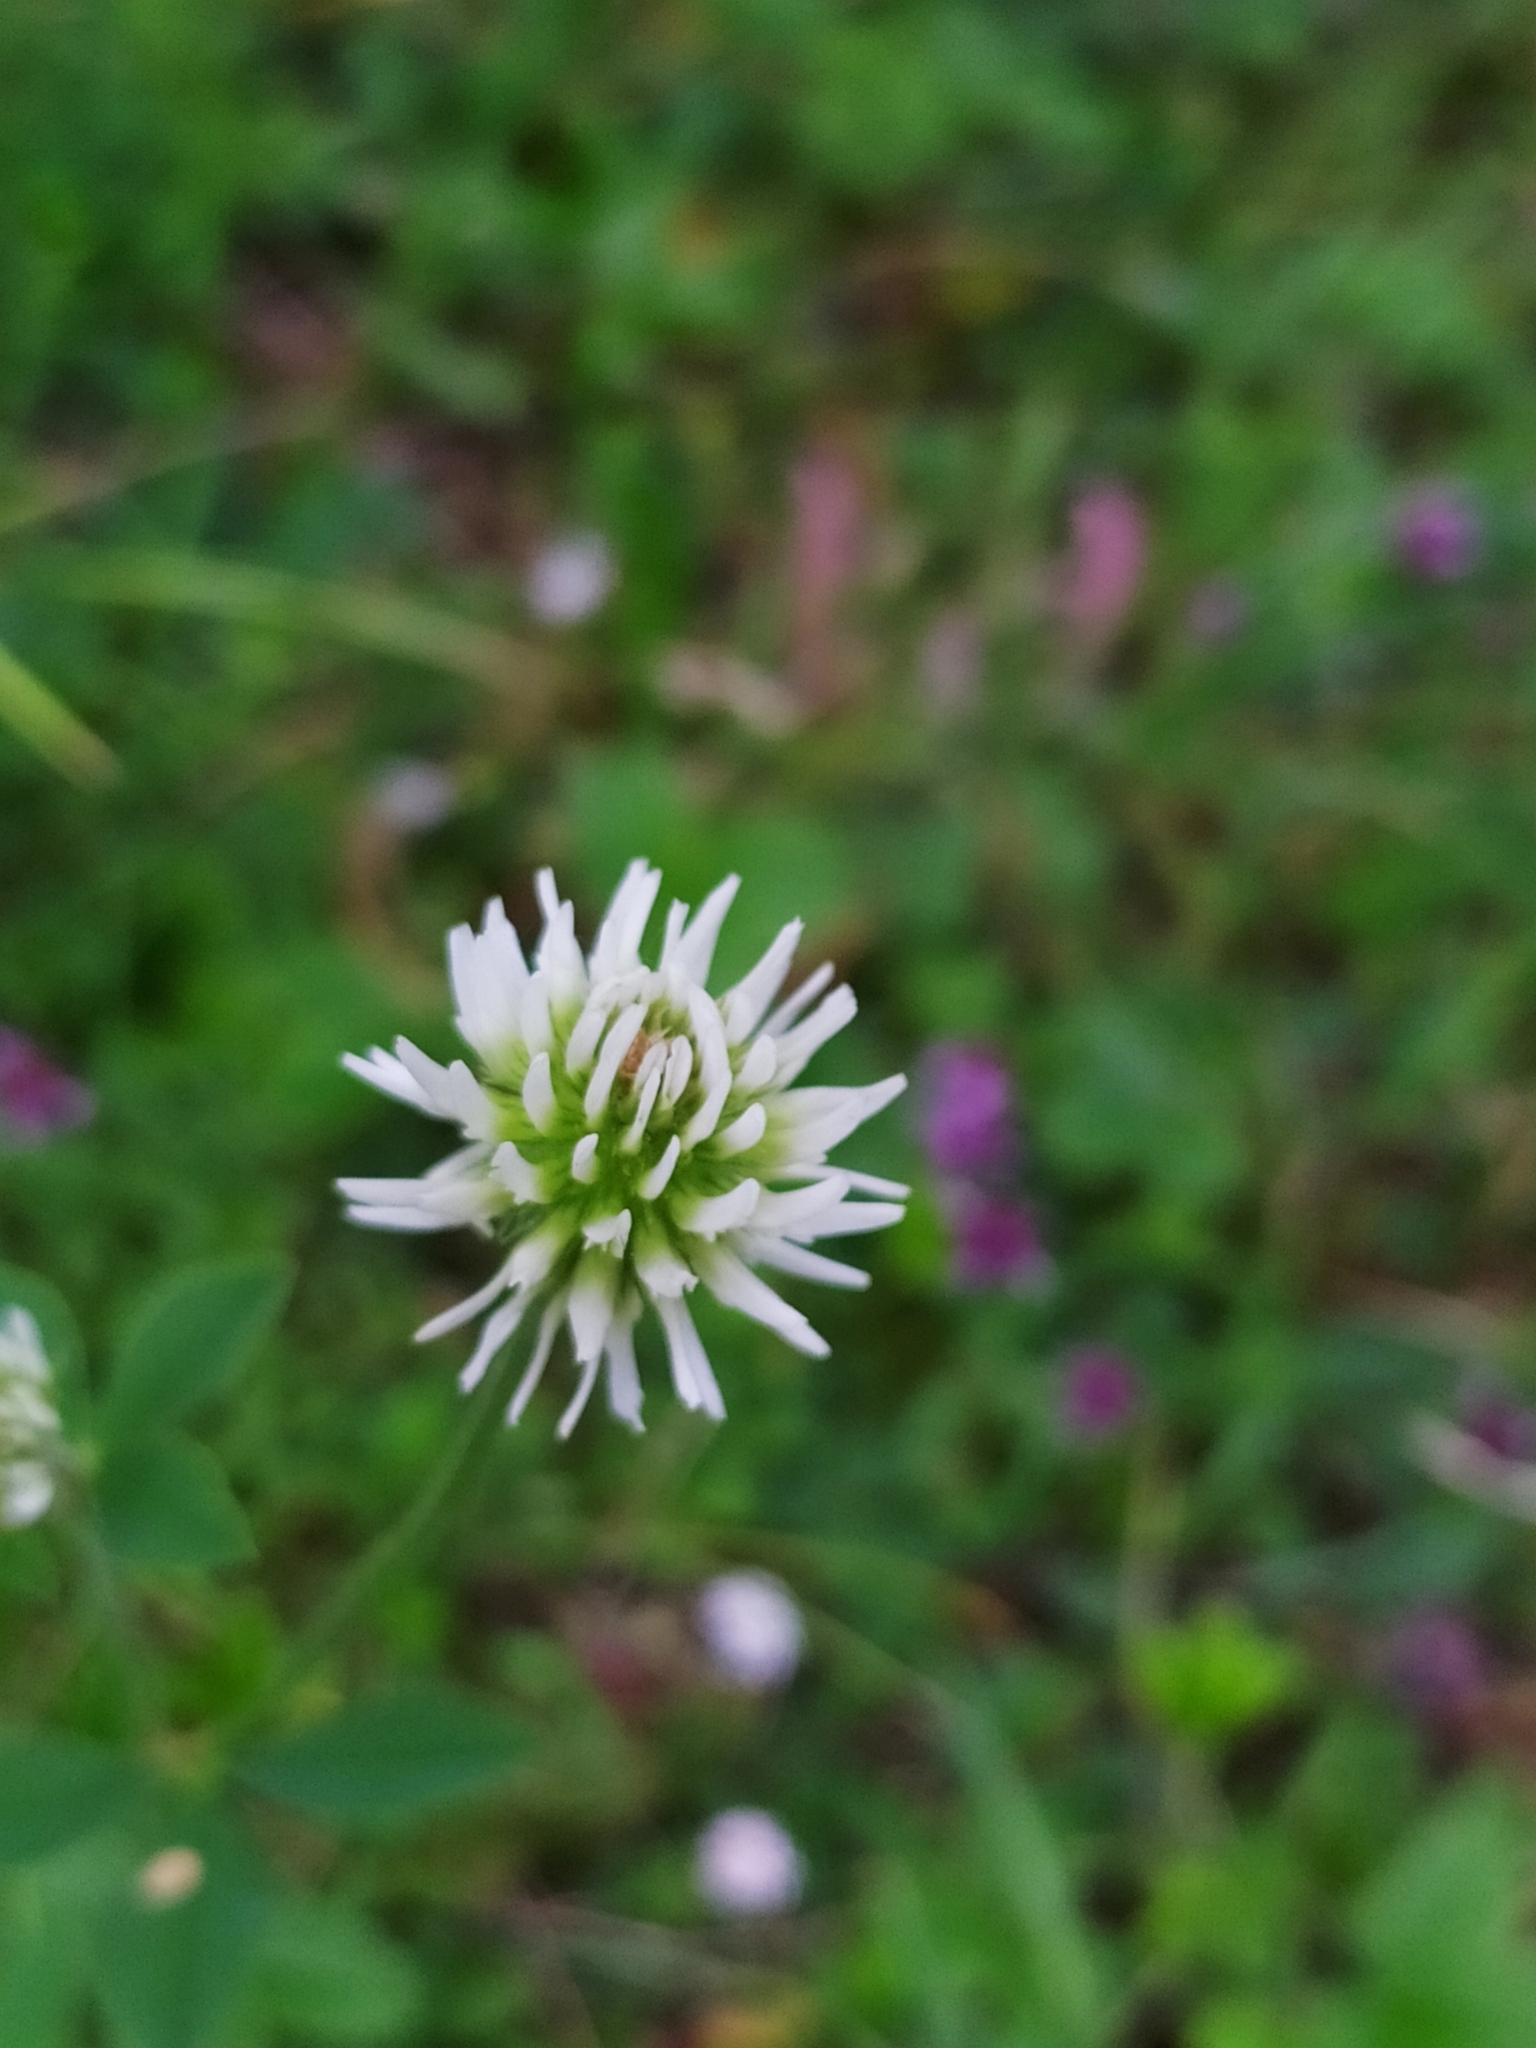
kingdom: Plantae
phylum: Tracheophyta
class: Magnoliopsida
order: Fabales
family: Fabaceae
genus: Trifolium
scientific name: Trifolium montanum
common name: Mountain clover
